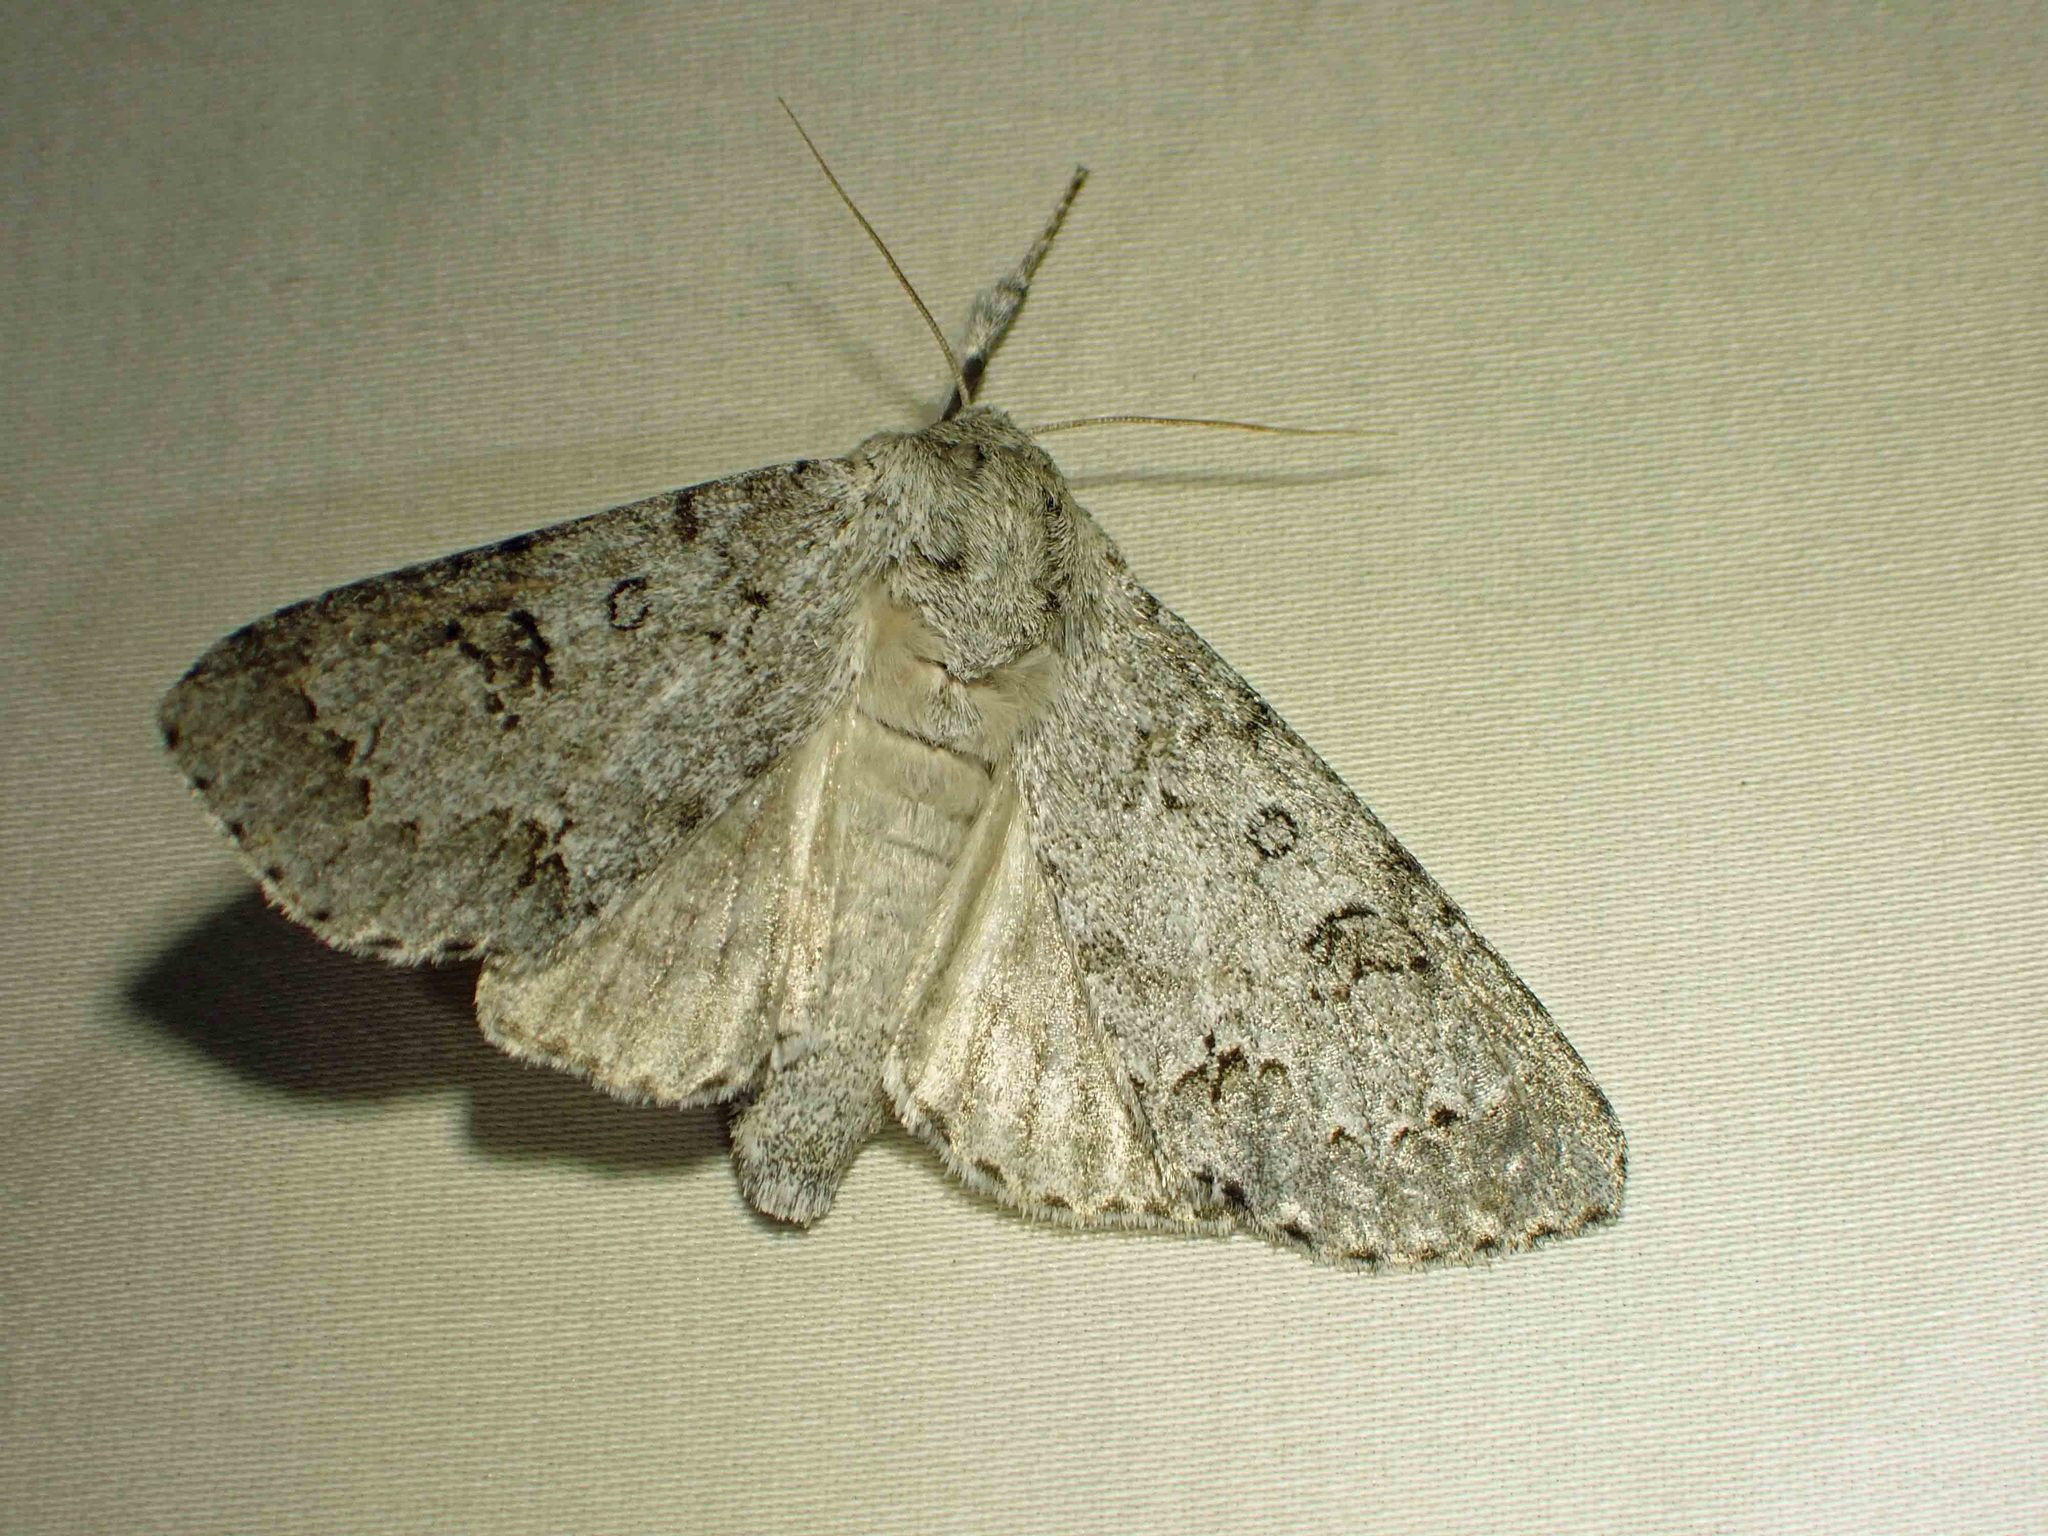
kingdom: Animalia
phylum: Arthropoda
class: Insecta
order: Lepidoptera
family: Noctuidae
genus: Acronicta
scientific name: Acronicta insita
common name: Large gray dagger
